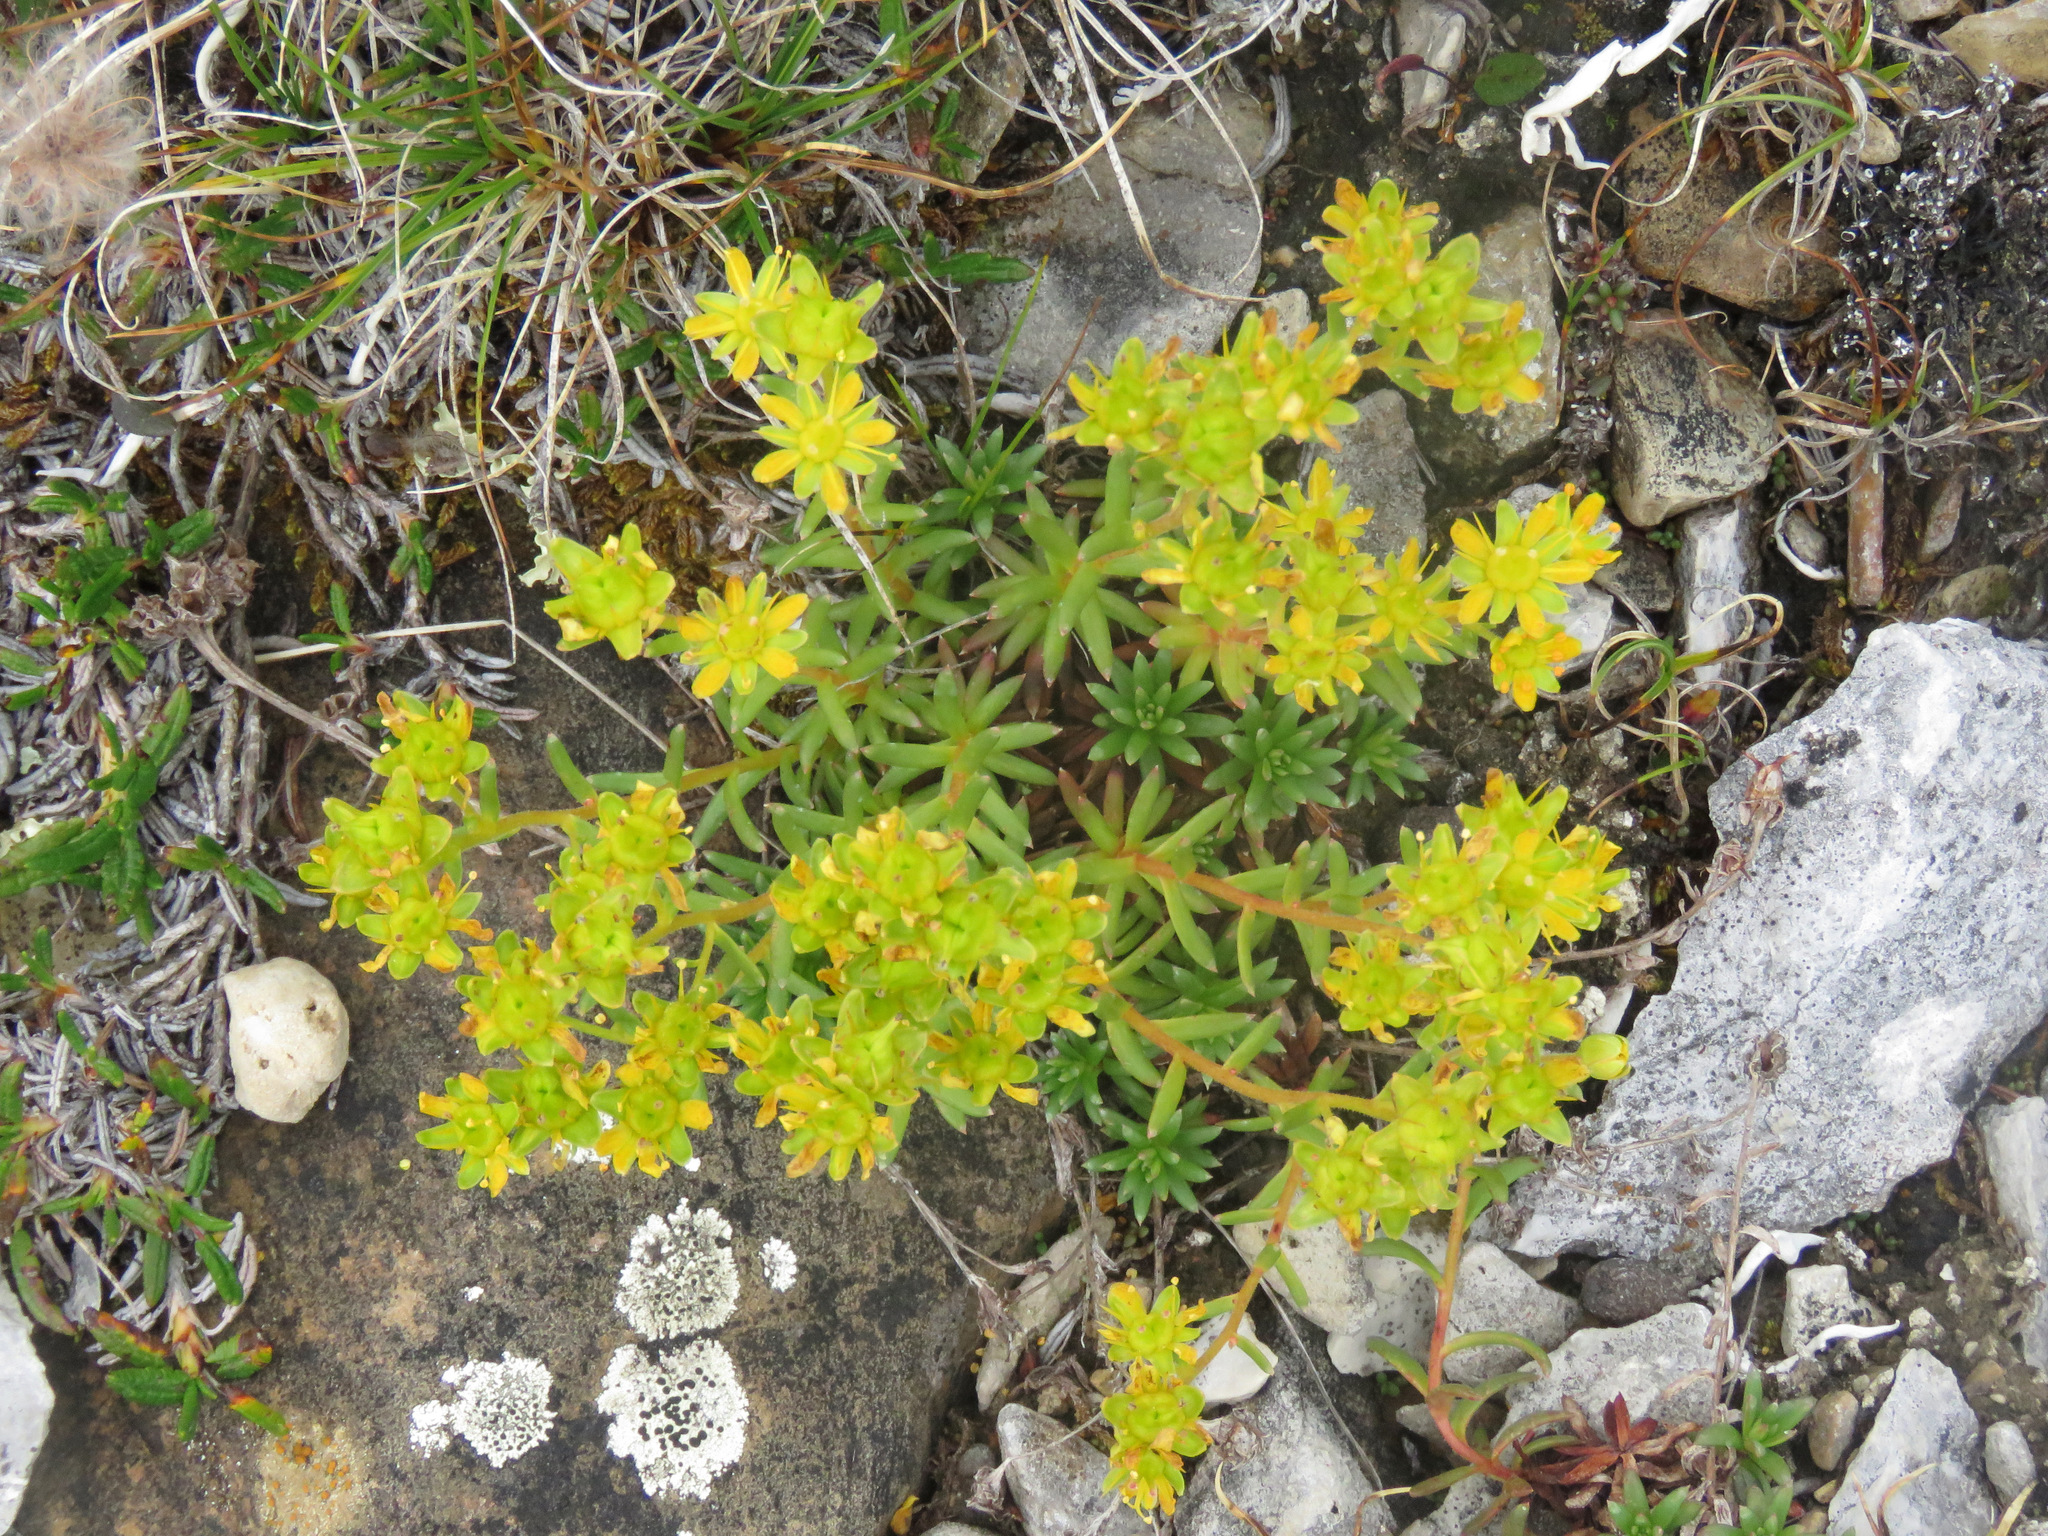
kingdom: Plantae
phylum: Tracheophyta
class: Magnoliopsida
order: Saxifragales
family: Saxifragaceae
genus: Saxifraga
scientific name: Saxifraga aizoides
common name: Yellow mountain saxifrage
